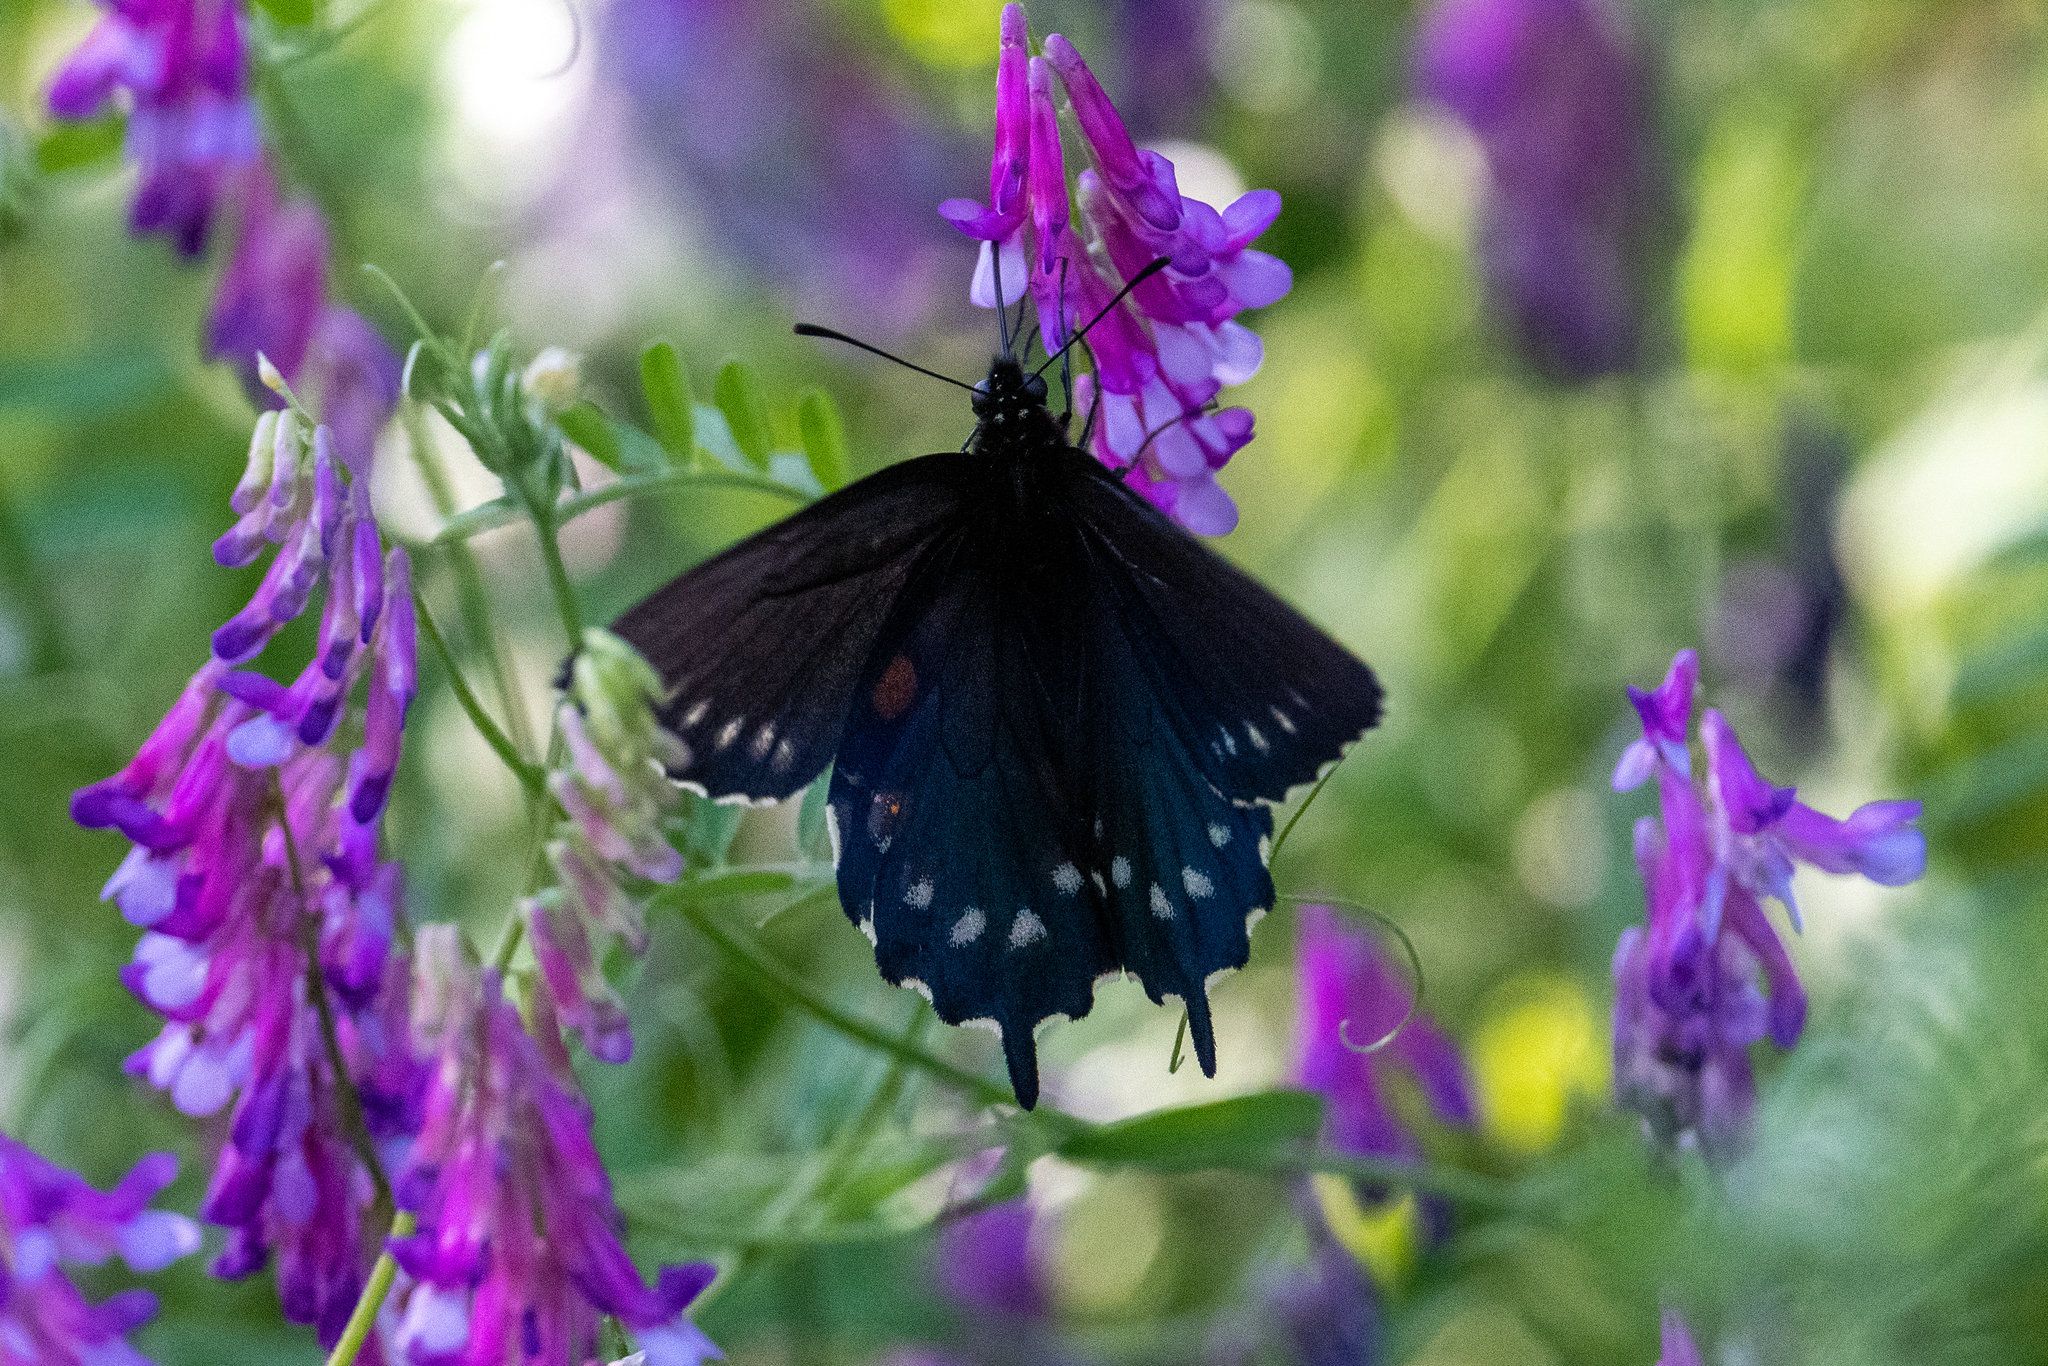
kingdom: Animalia
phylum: Arthropoda
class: Insecta
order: Lepidoptera
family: Papilionidae
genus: Battus
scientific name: Battus philenor
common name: Pipevine swallowtail
